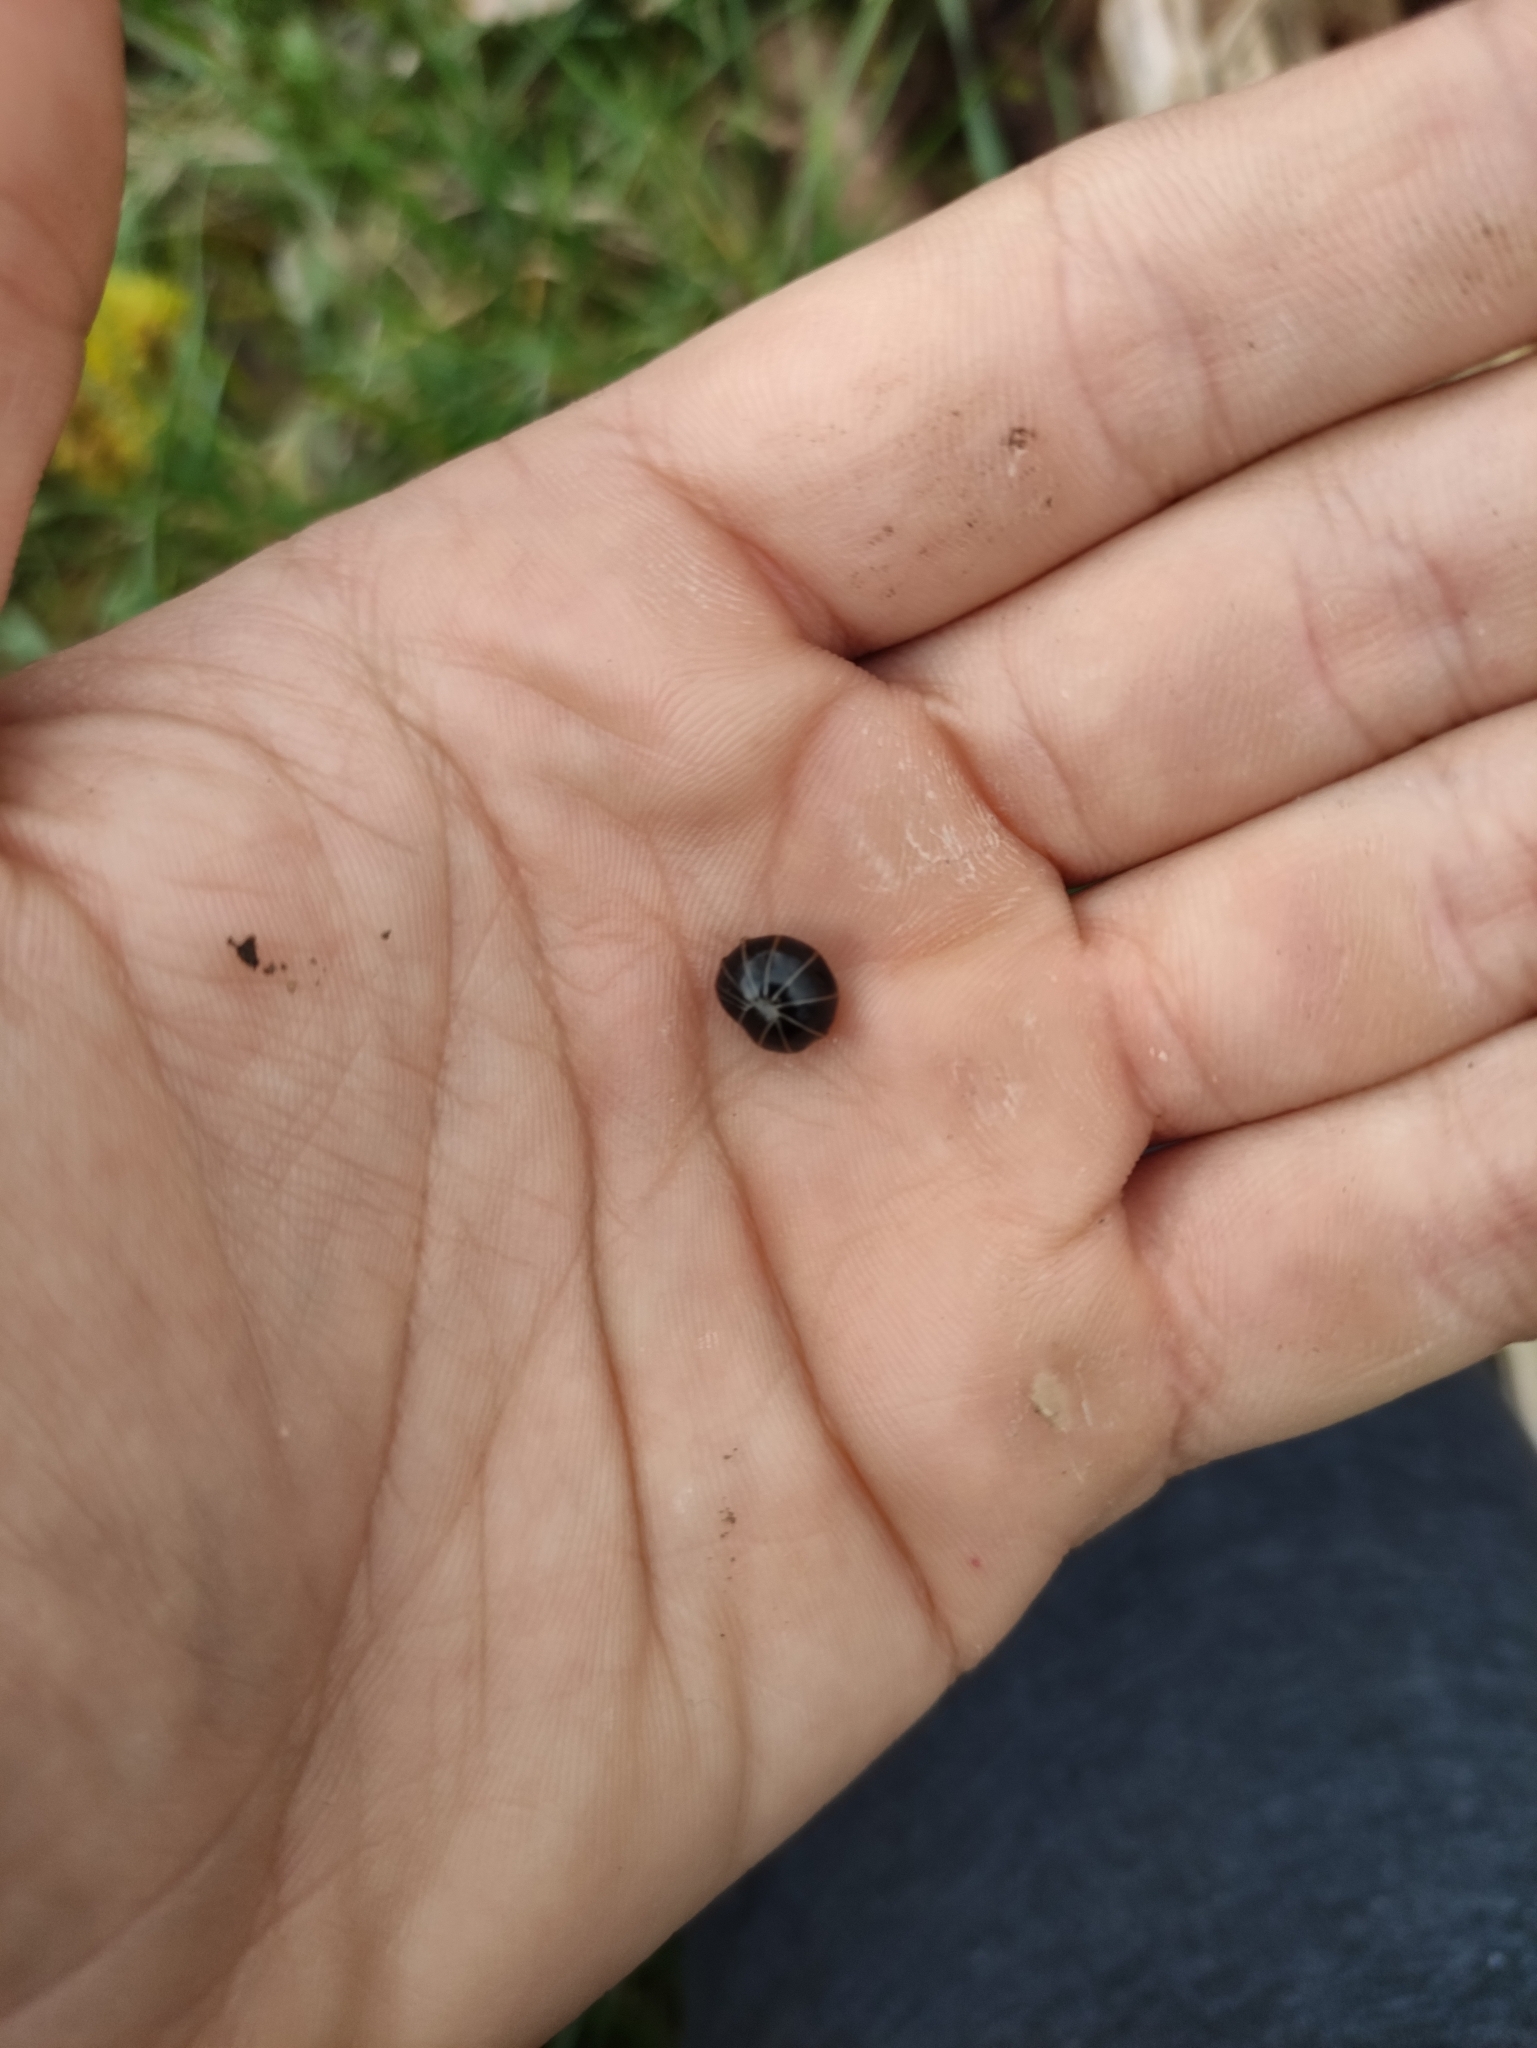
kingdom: Animalia
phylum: Arthropoda
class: Diplopoda
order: Glomerida
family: Glomeridae
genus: Glomeris
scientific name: Glomeris marginata
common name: Bordered pill millipede
